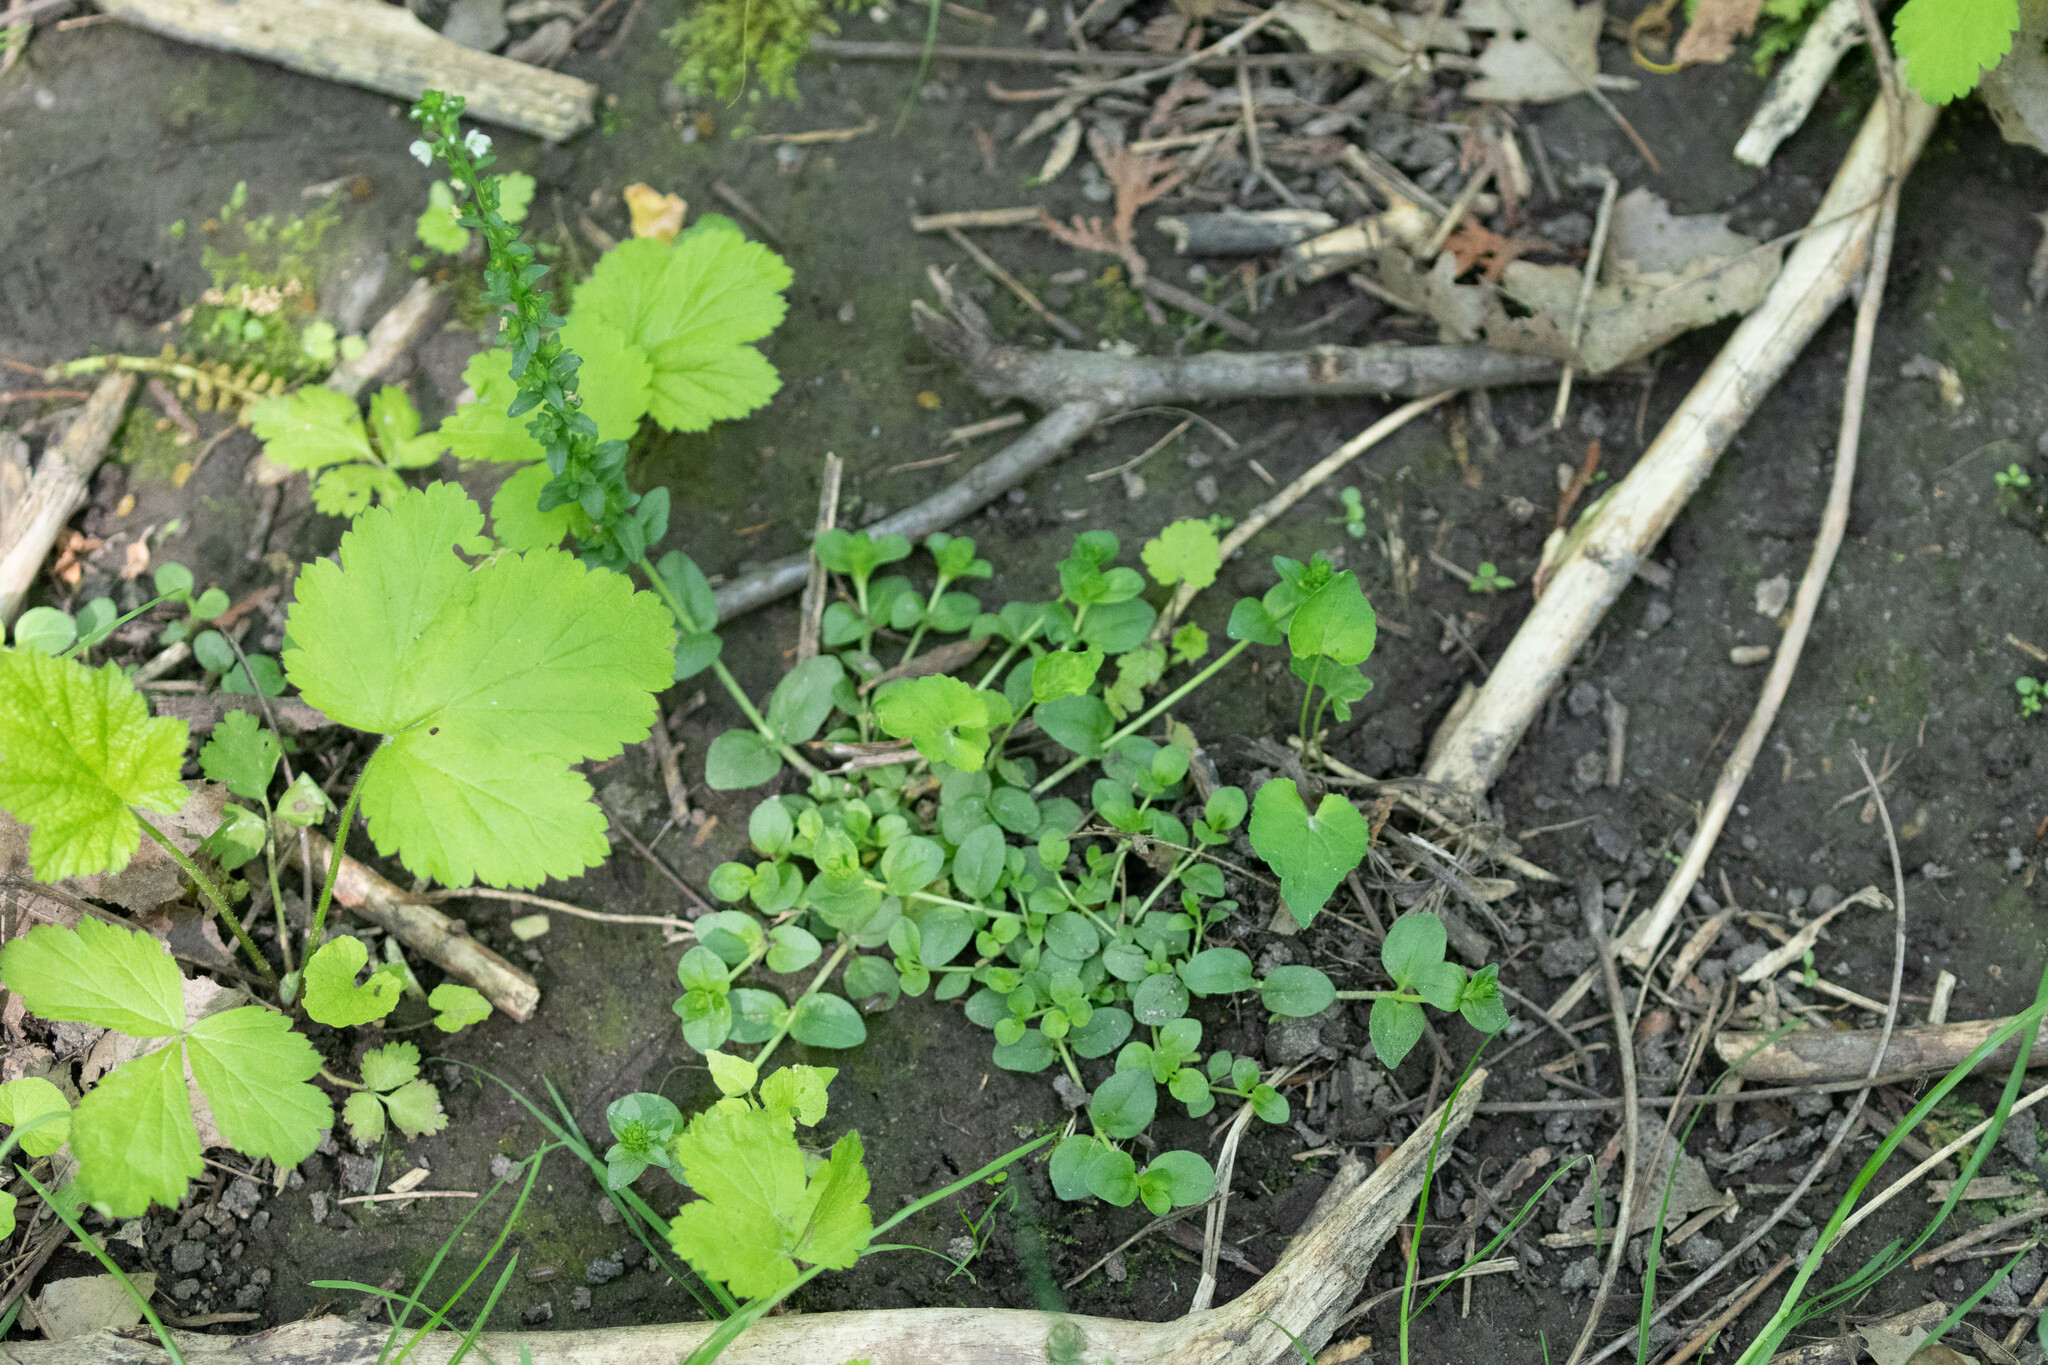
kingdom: Plantae
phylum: Tracheophyta
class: Magnoliopsida
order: Lamiales
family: Plantaginaceae
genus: Veronica
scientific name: Veronica serpyllifolia
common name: Thyme-leaved speedwell
